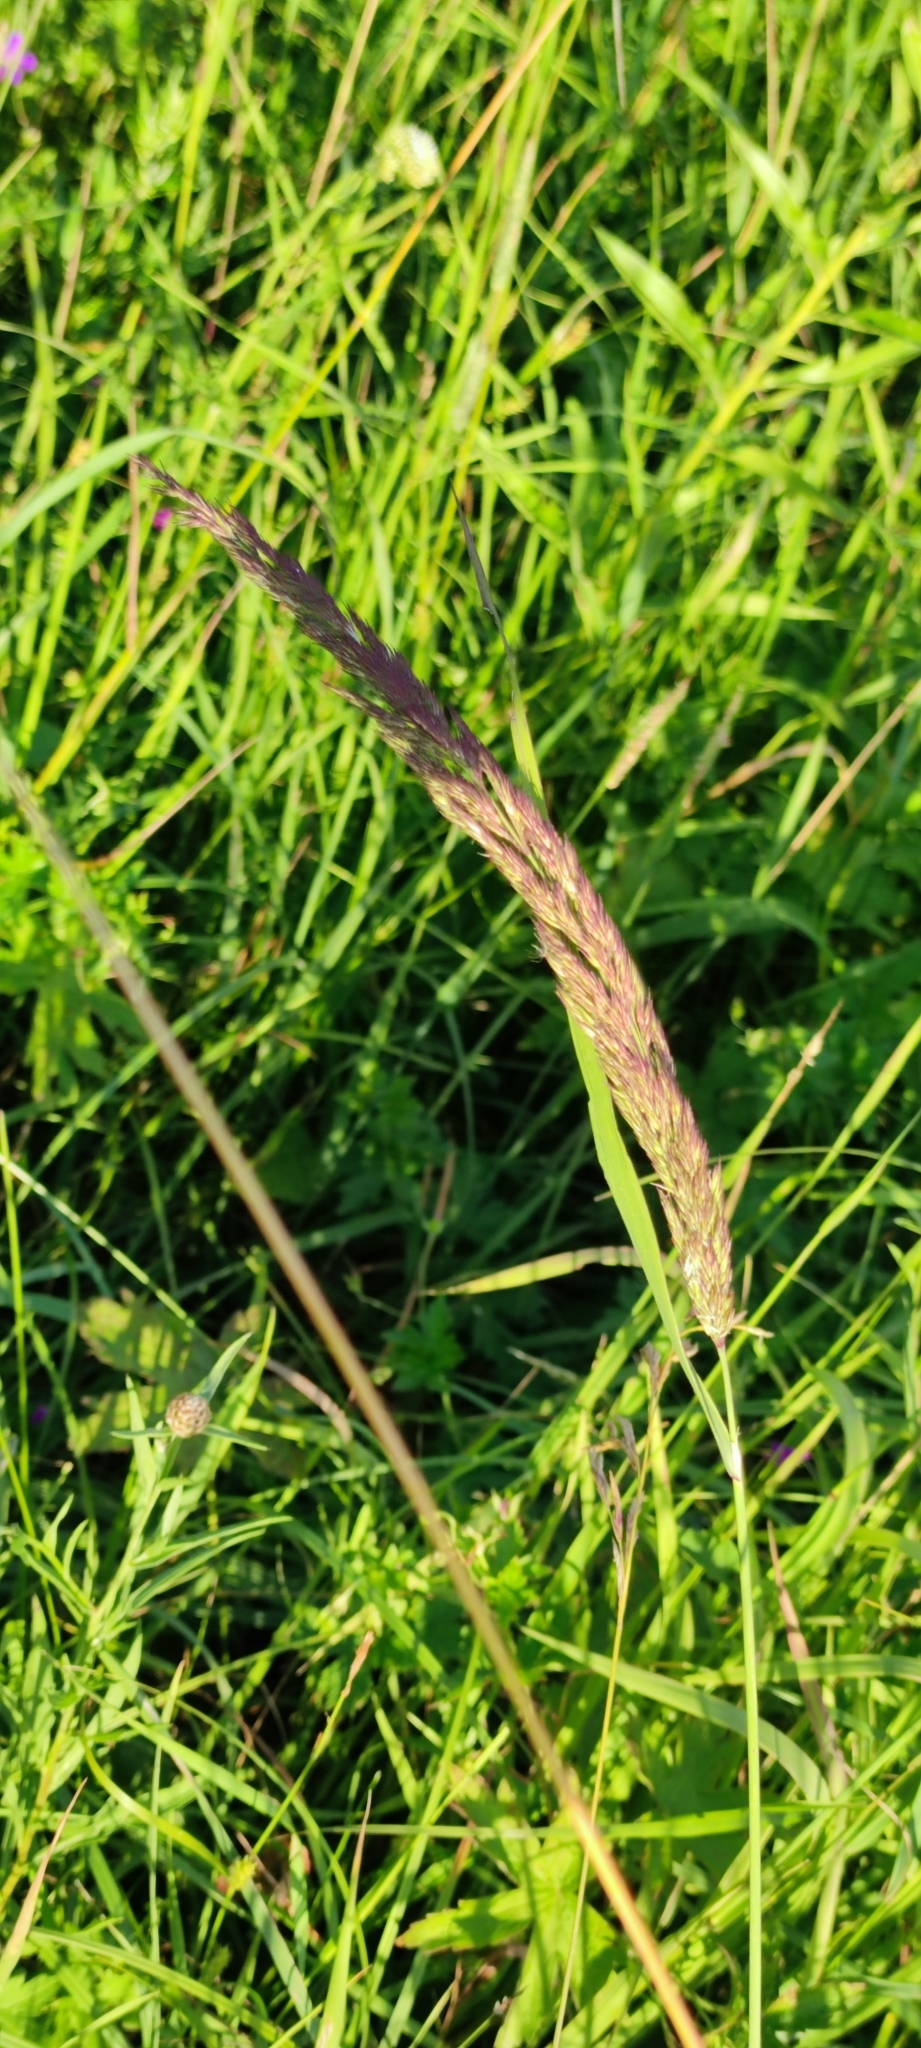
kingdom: Plantae
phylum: Tracheophyta
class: Liliopsida
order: Poales
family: Poaceae
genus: Calamagrostis
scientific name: Calamagrostis epigejos
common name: Wood small-reed
